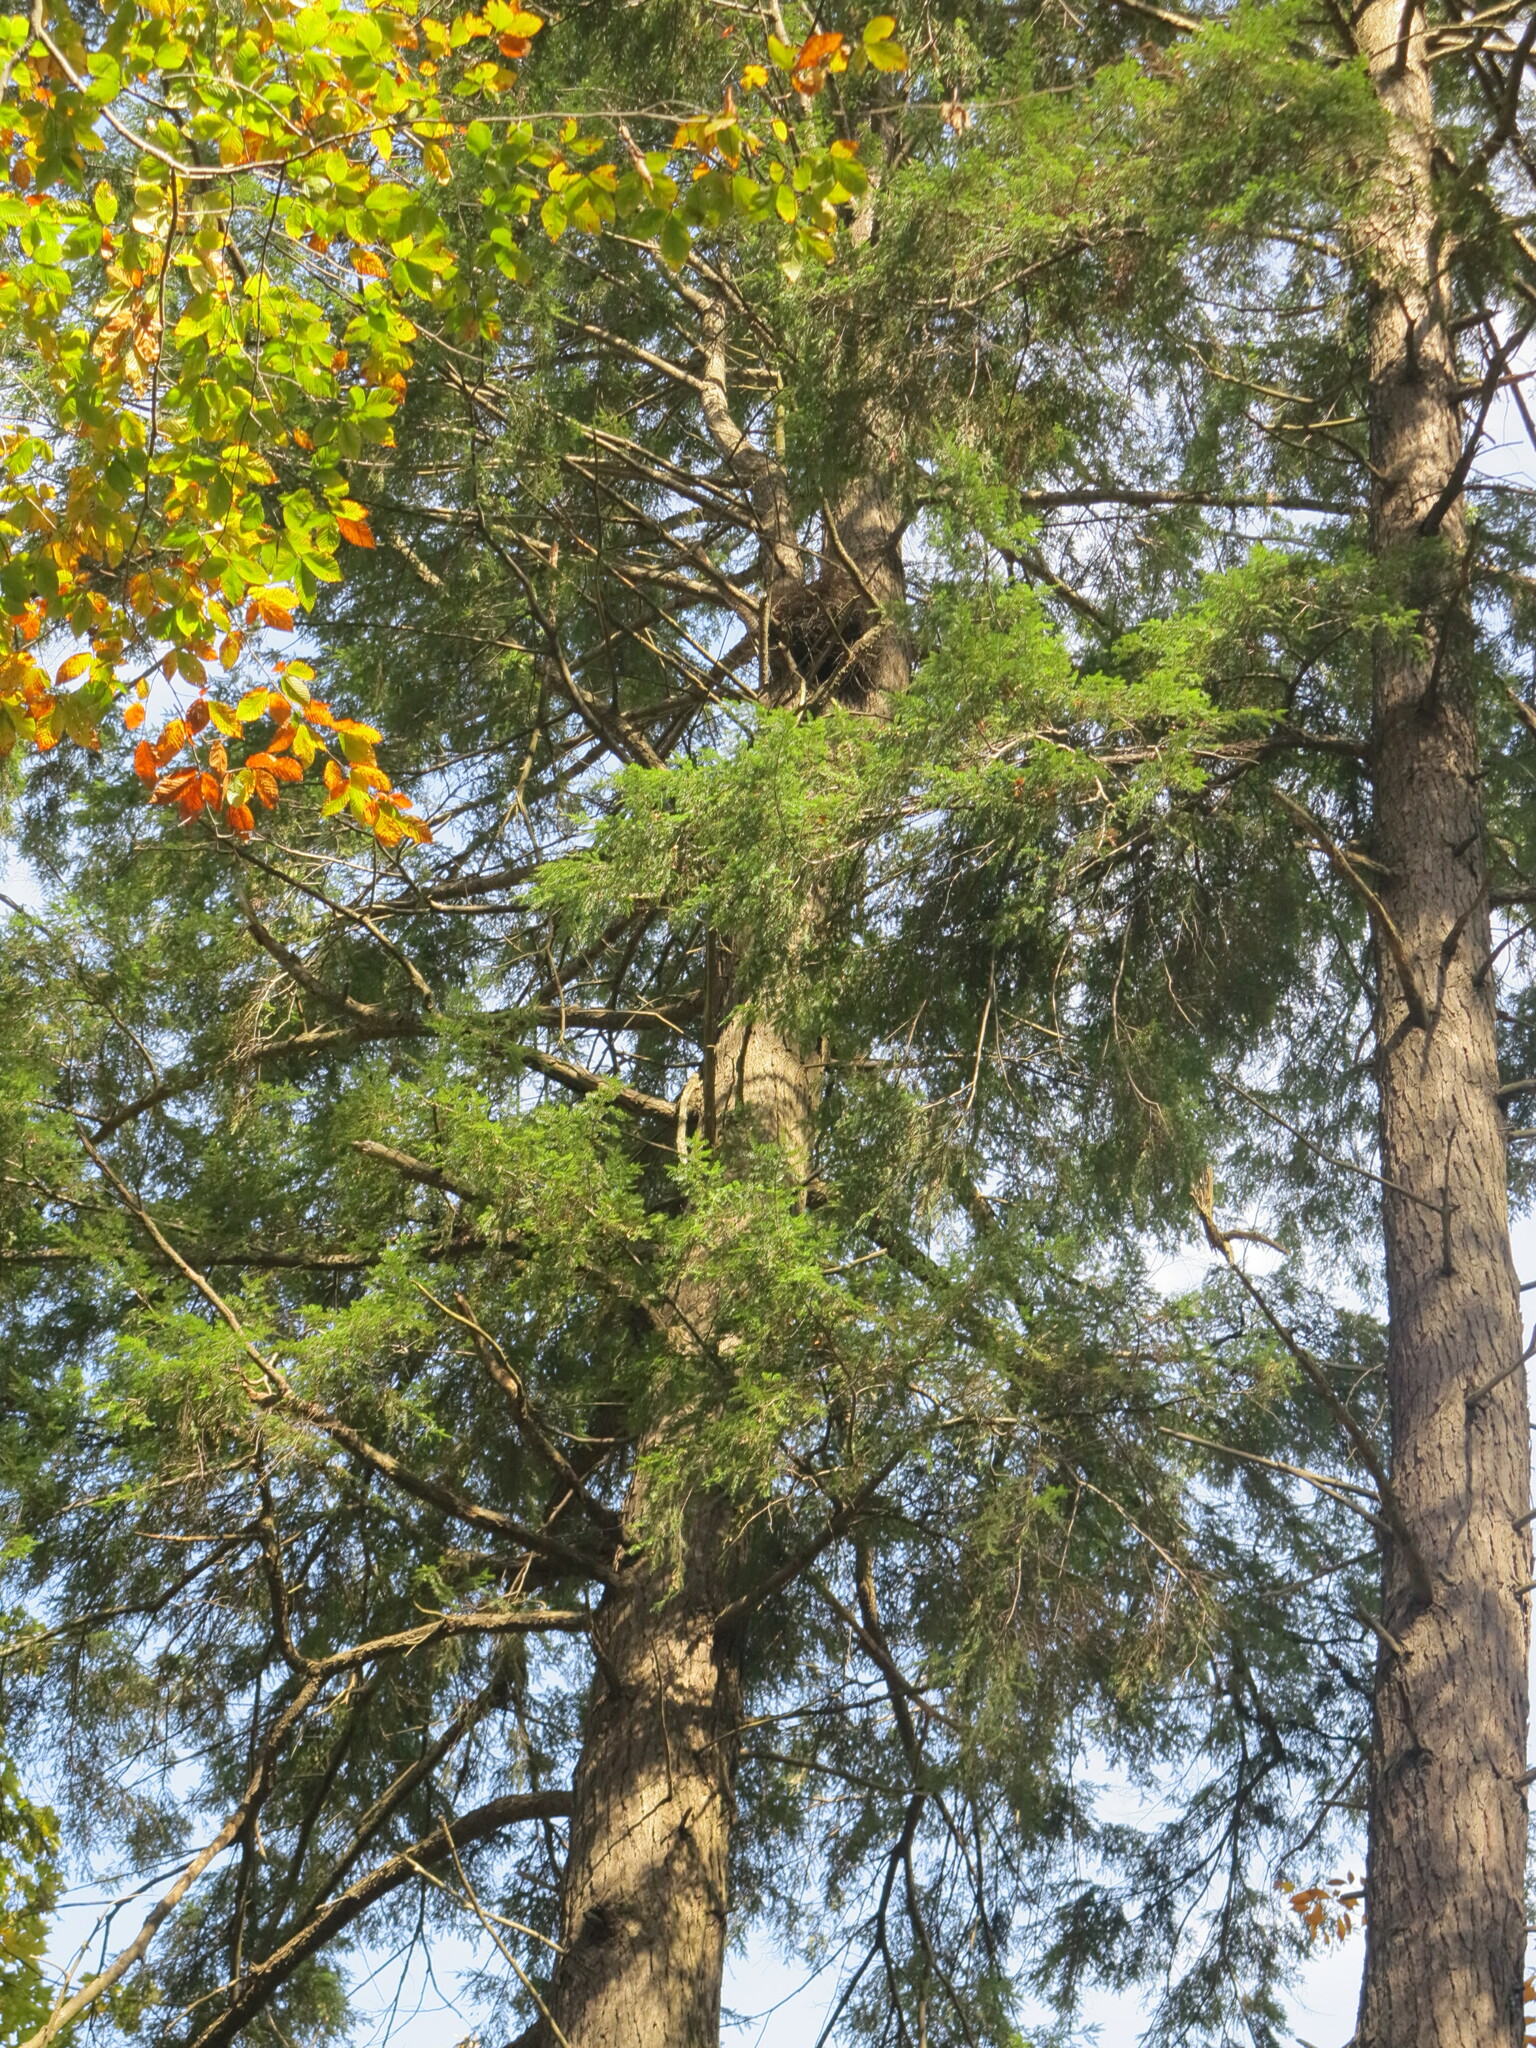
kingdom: Plantae
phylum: Tracheophyta
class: Pinopsida
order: Pinales
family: Pinaceae
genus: Tsuga
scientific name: Tsuga canadensis
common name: Eastern hemlock
